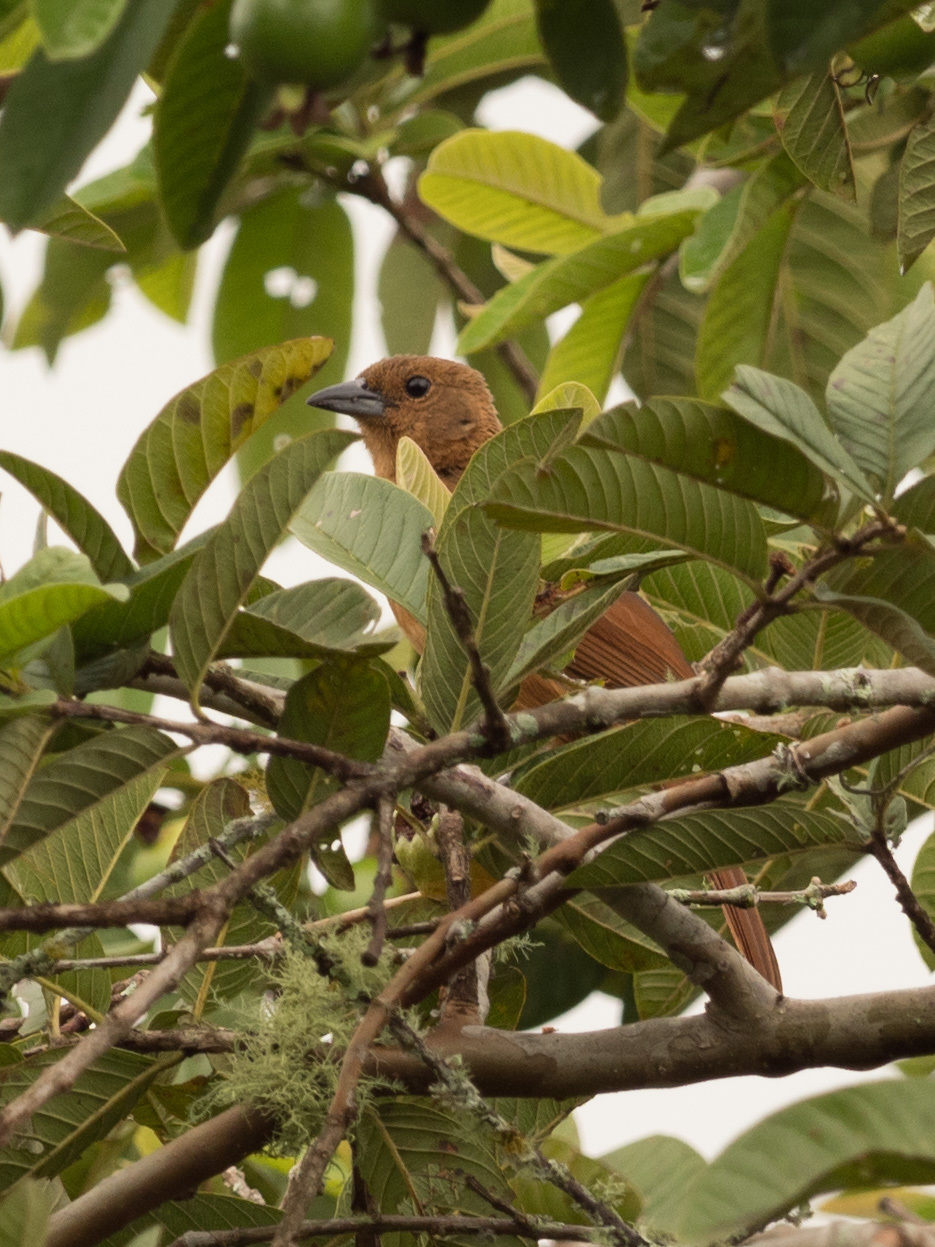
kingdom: Animalia
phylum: Chordata
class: Aves
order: Passeriformes
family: Thraupidae
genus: Tachyphonus
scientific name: Tachyphonus rufus
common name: White-lined tanager
